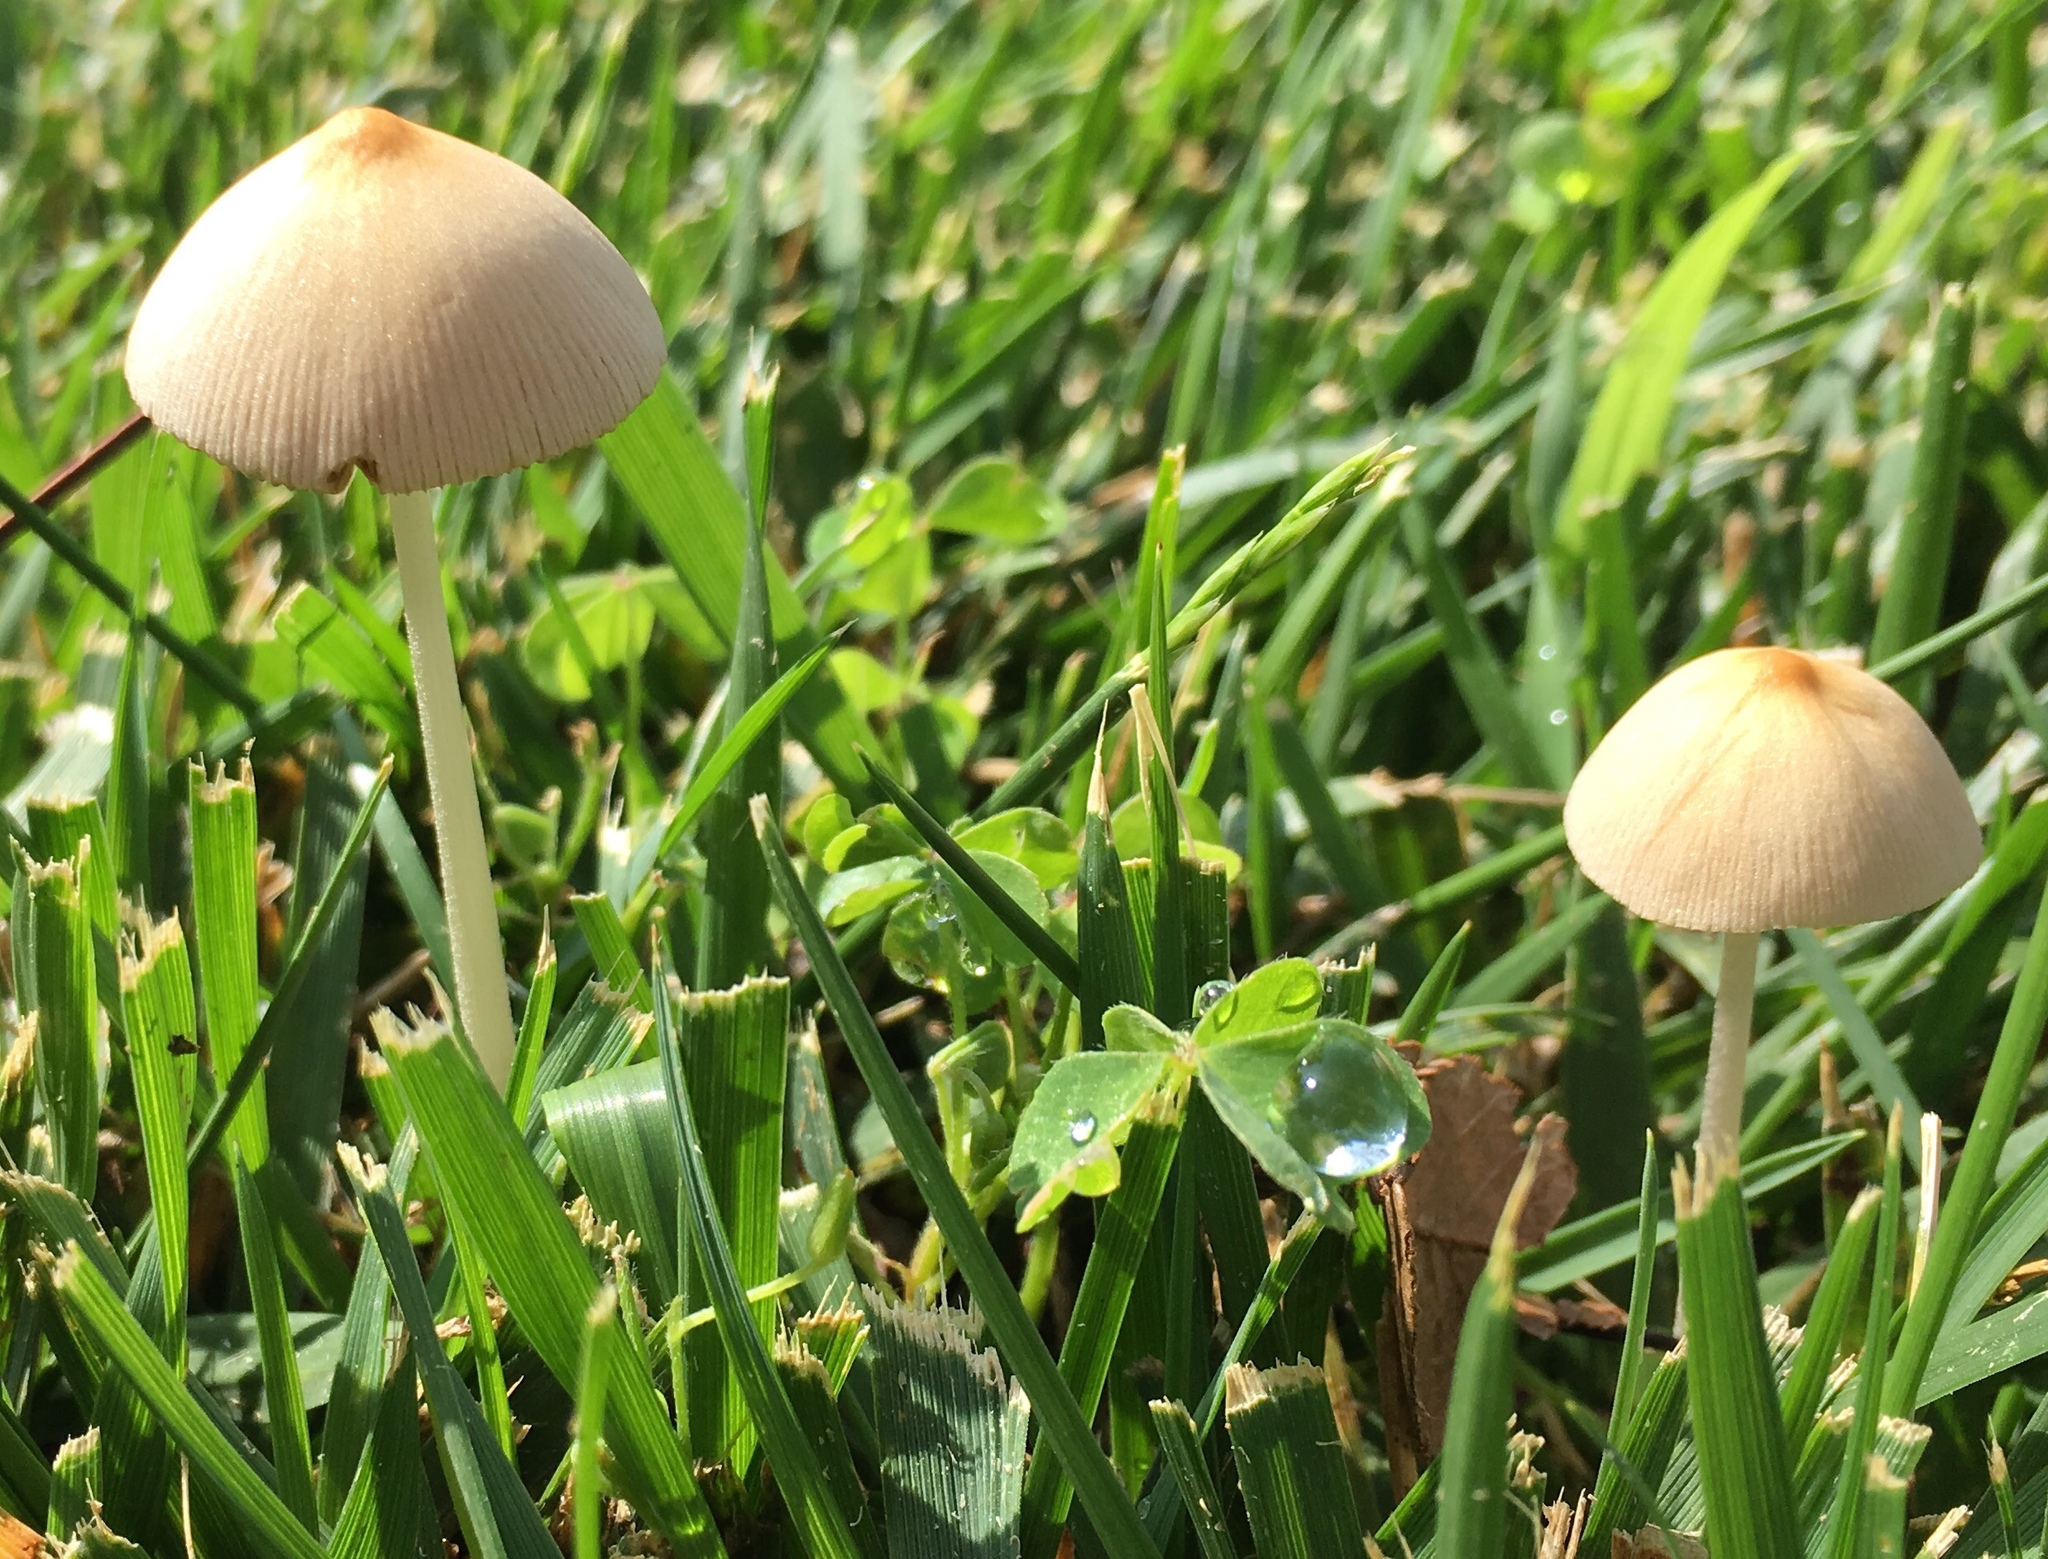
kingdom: Fungi
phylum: Basidiomycota
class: Agaricomycetes
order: Agaricales
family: Bolbitiaceae
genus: Conocybe
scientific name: Conocybe apala
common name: Milky conecap
